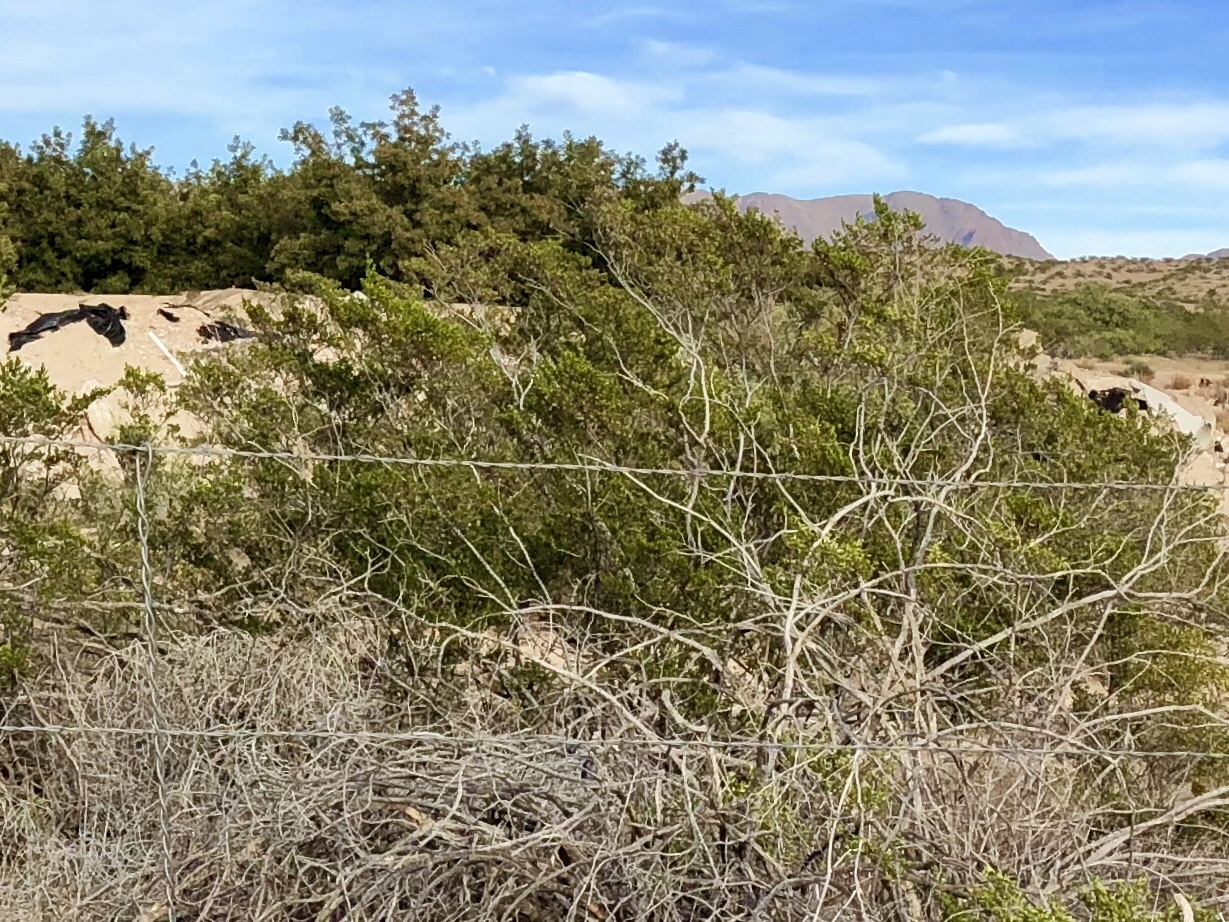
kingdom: Plantae
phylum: Tracheophyta
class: Magnoliopsida
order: Zygophyllales
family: Zygophyllaceae
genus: Larrea
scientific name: Larrea tridentata
